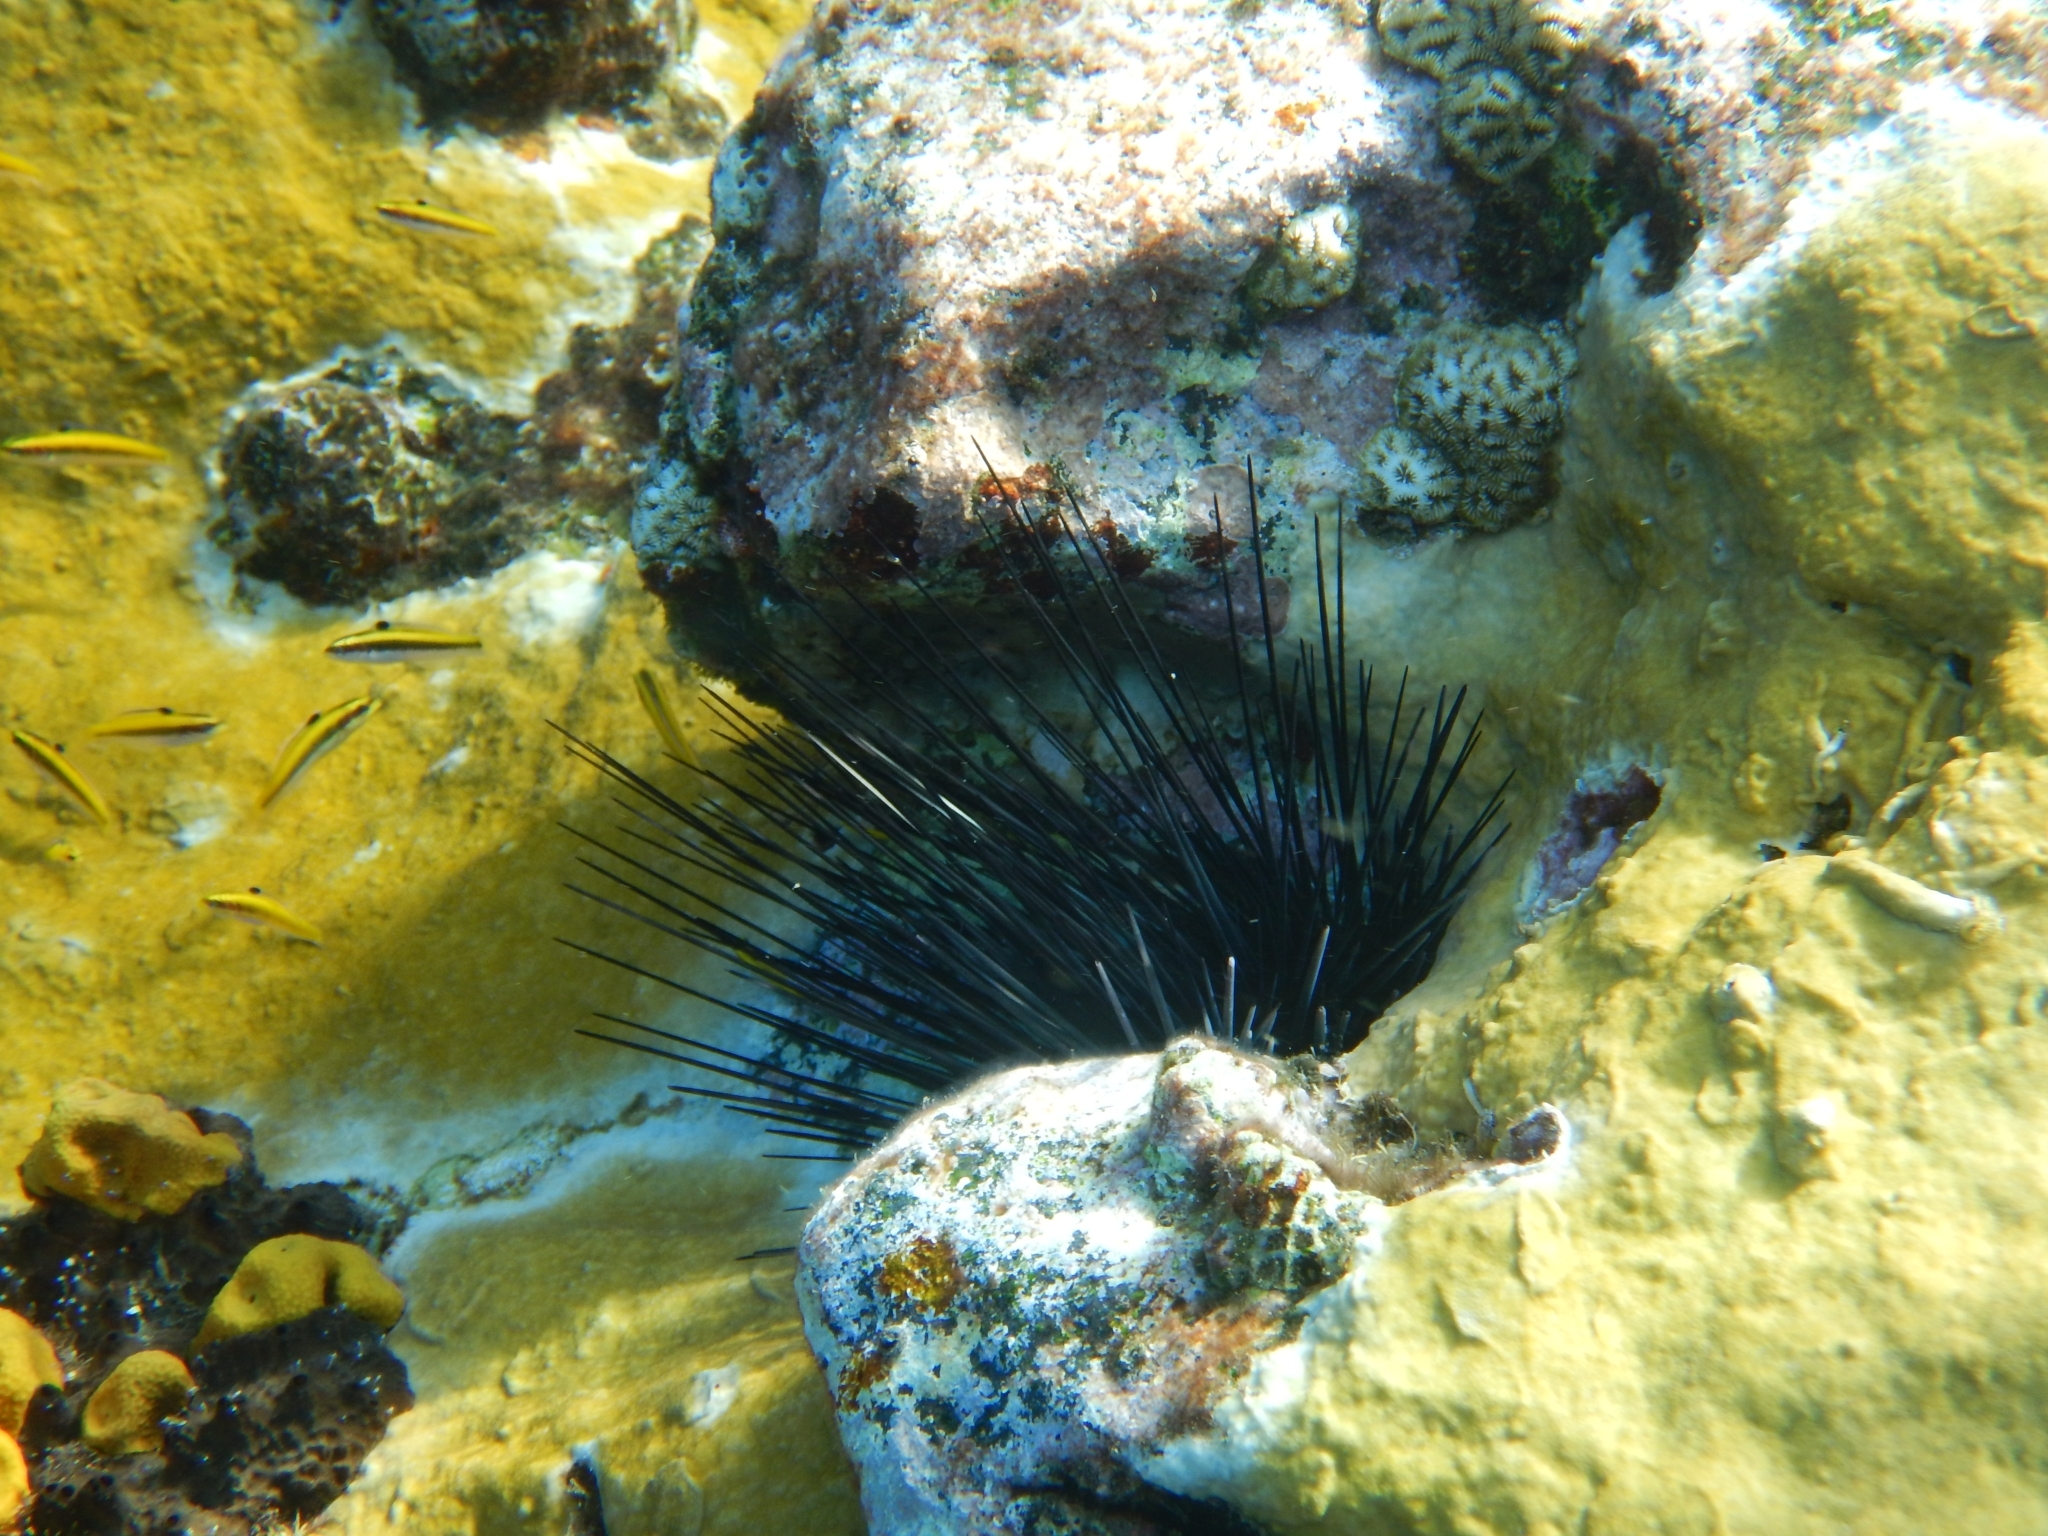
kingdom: Animalia
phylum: Echinodermata
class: Echinoidea
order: Diadematoida
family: Diadematidae
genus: Diadema
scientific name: Diadema antillarum
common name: Spiny urchin
